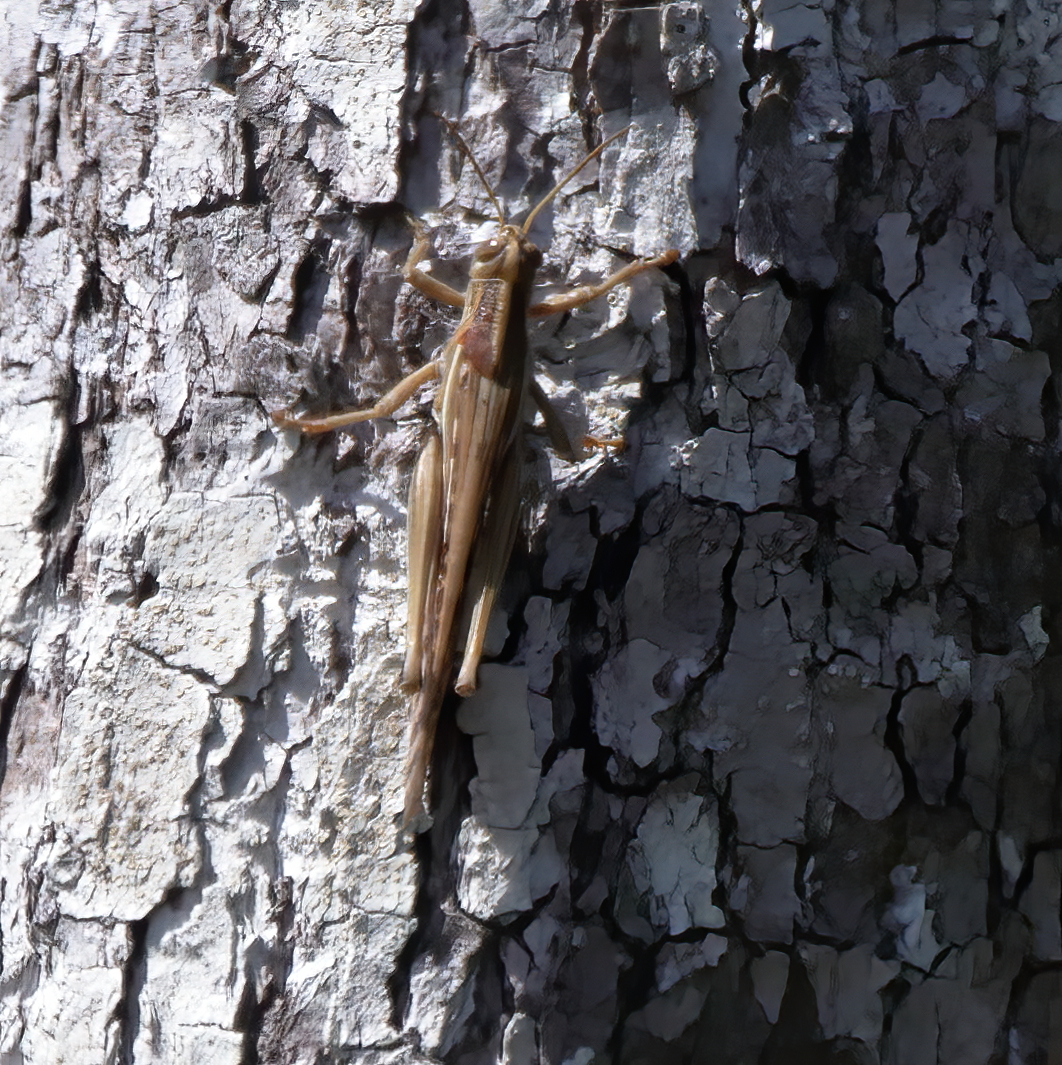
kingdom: Animalia
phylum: Arthropoda
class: Insecta
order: Orthoptera
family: Acrididae
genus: Schistocerca
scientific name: Schistocerca americana
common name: American bird locust
